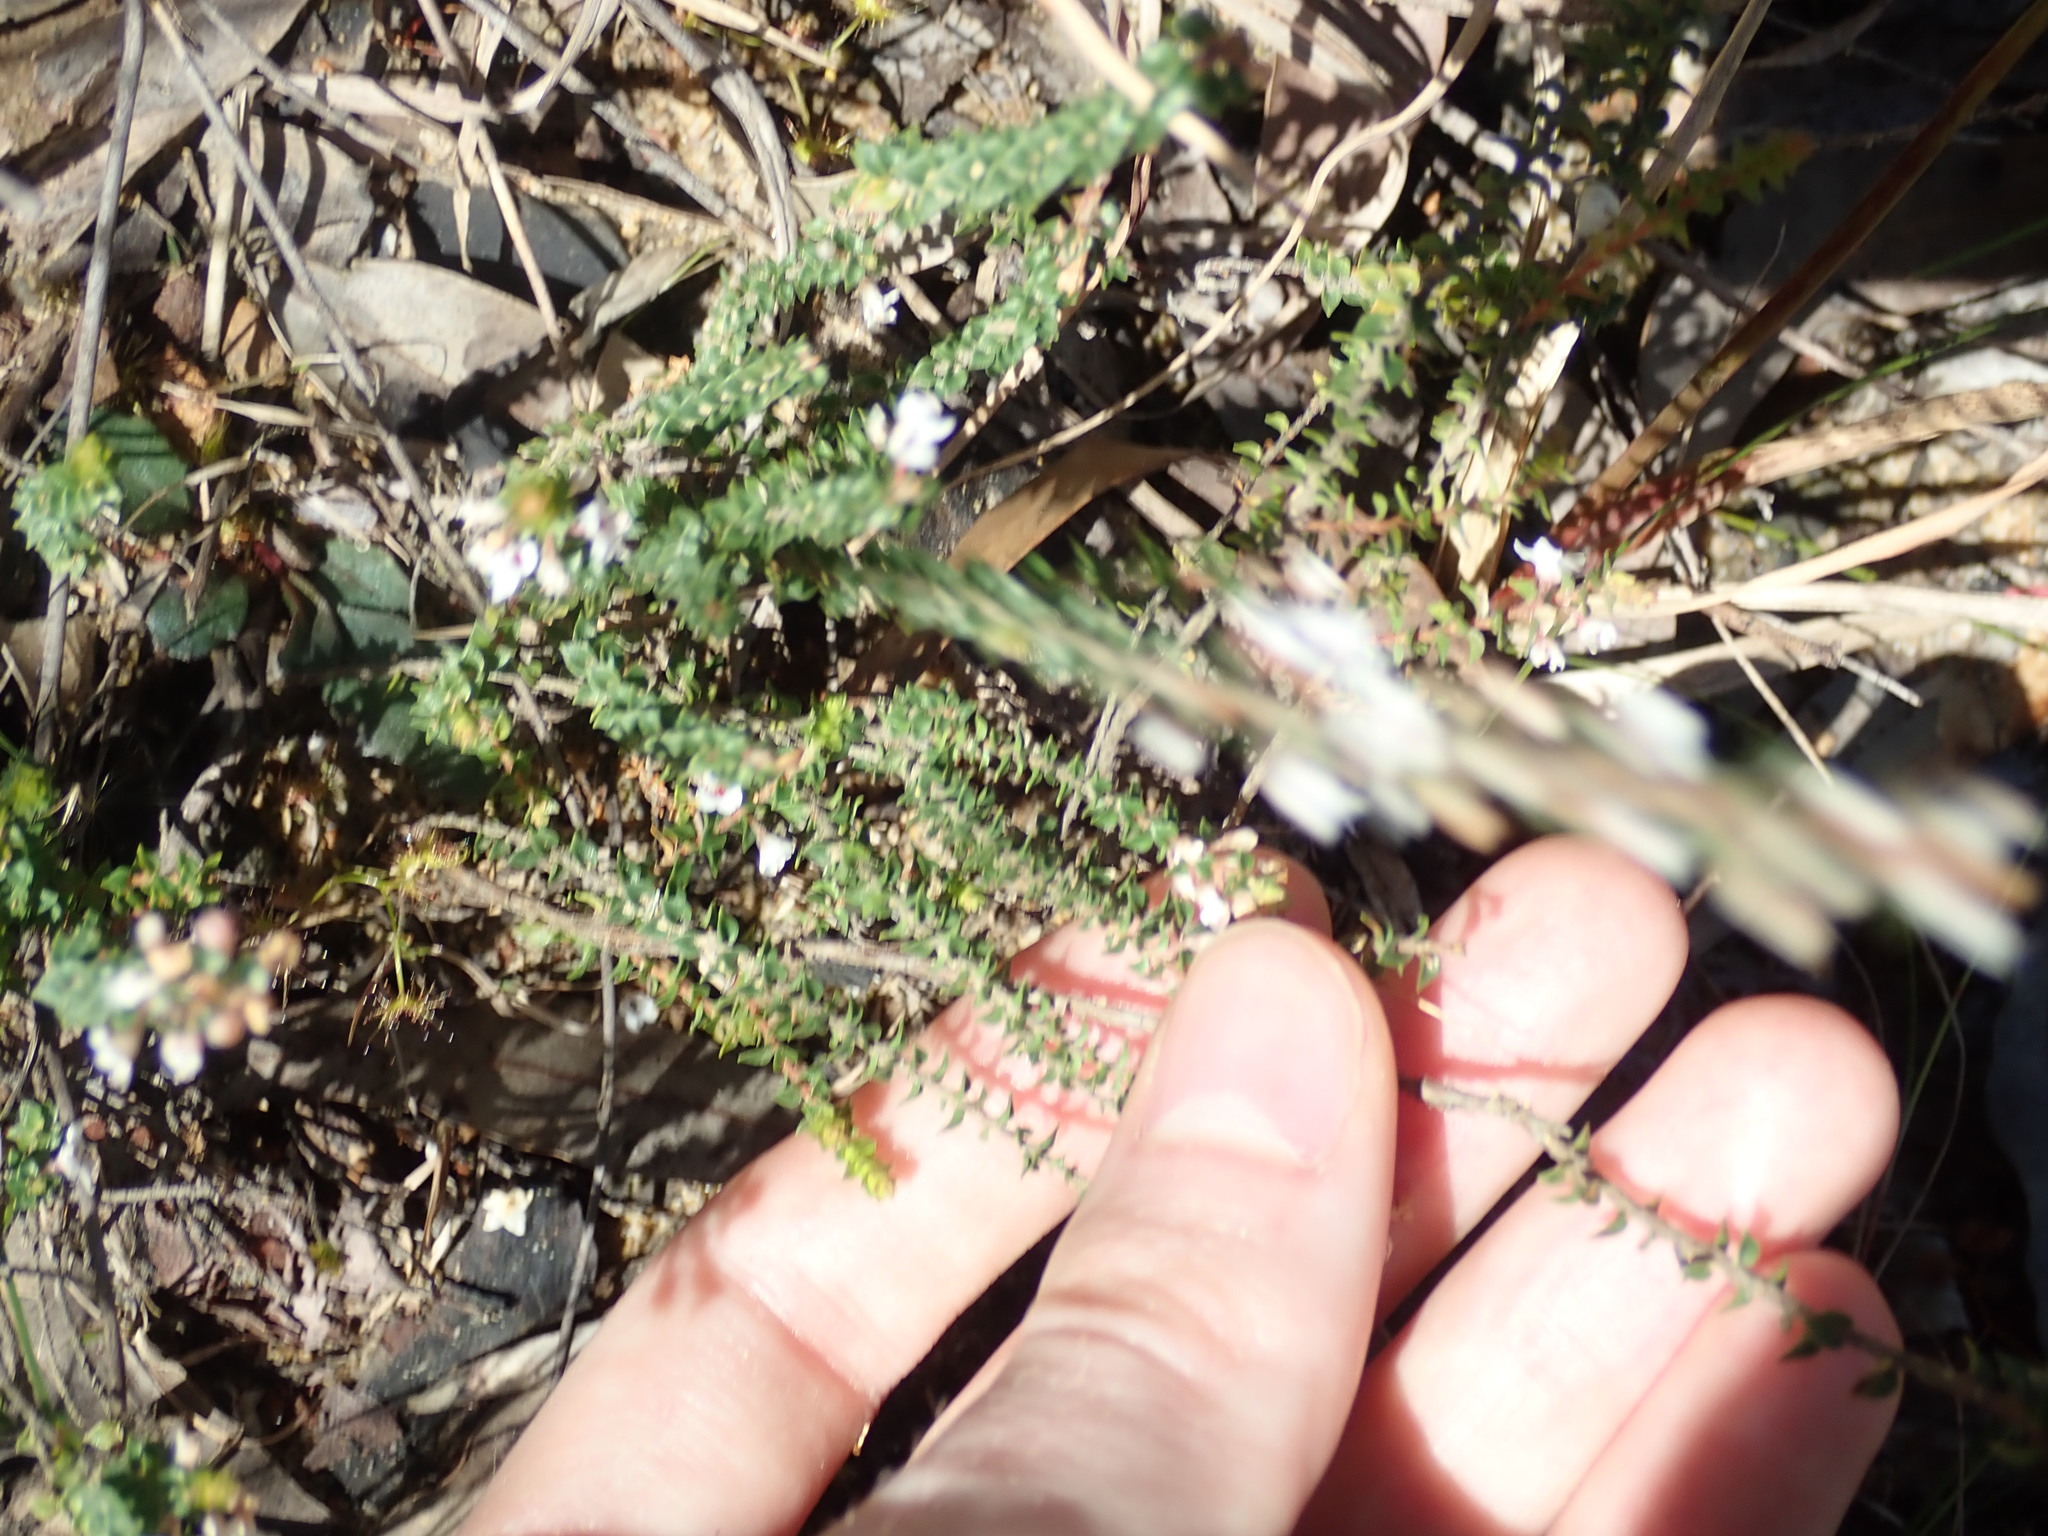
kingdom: Plantae
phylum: Tracheophyta
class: Magnoliopsida
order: Ericales
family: Ericaceae
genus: Epacris
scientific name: Epacris microphylla
